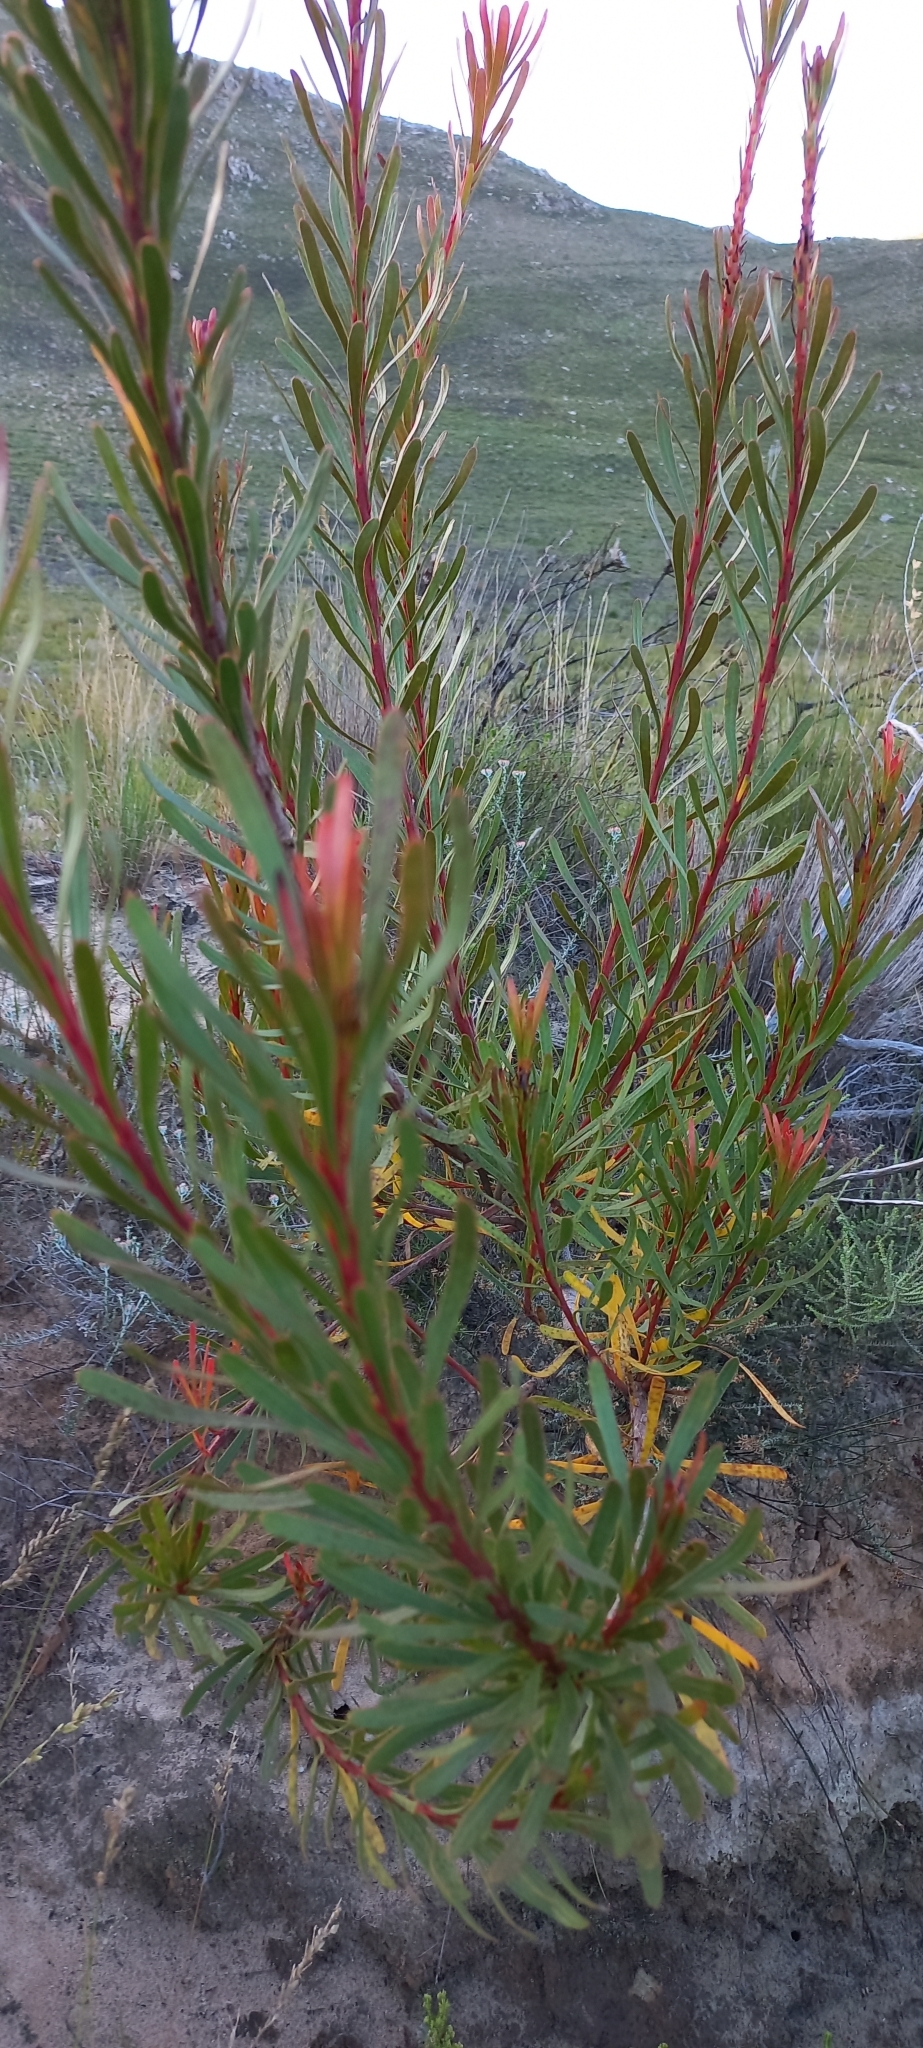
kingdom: Plantae
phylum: Tracheophyta
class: Magnoliopsida
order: Proteales
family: Proteaceae
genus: Aulax
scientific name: Aulax
